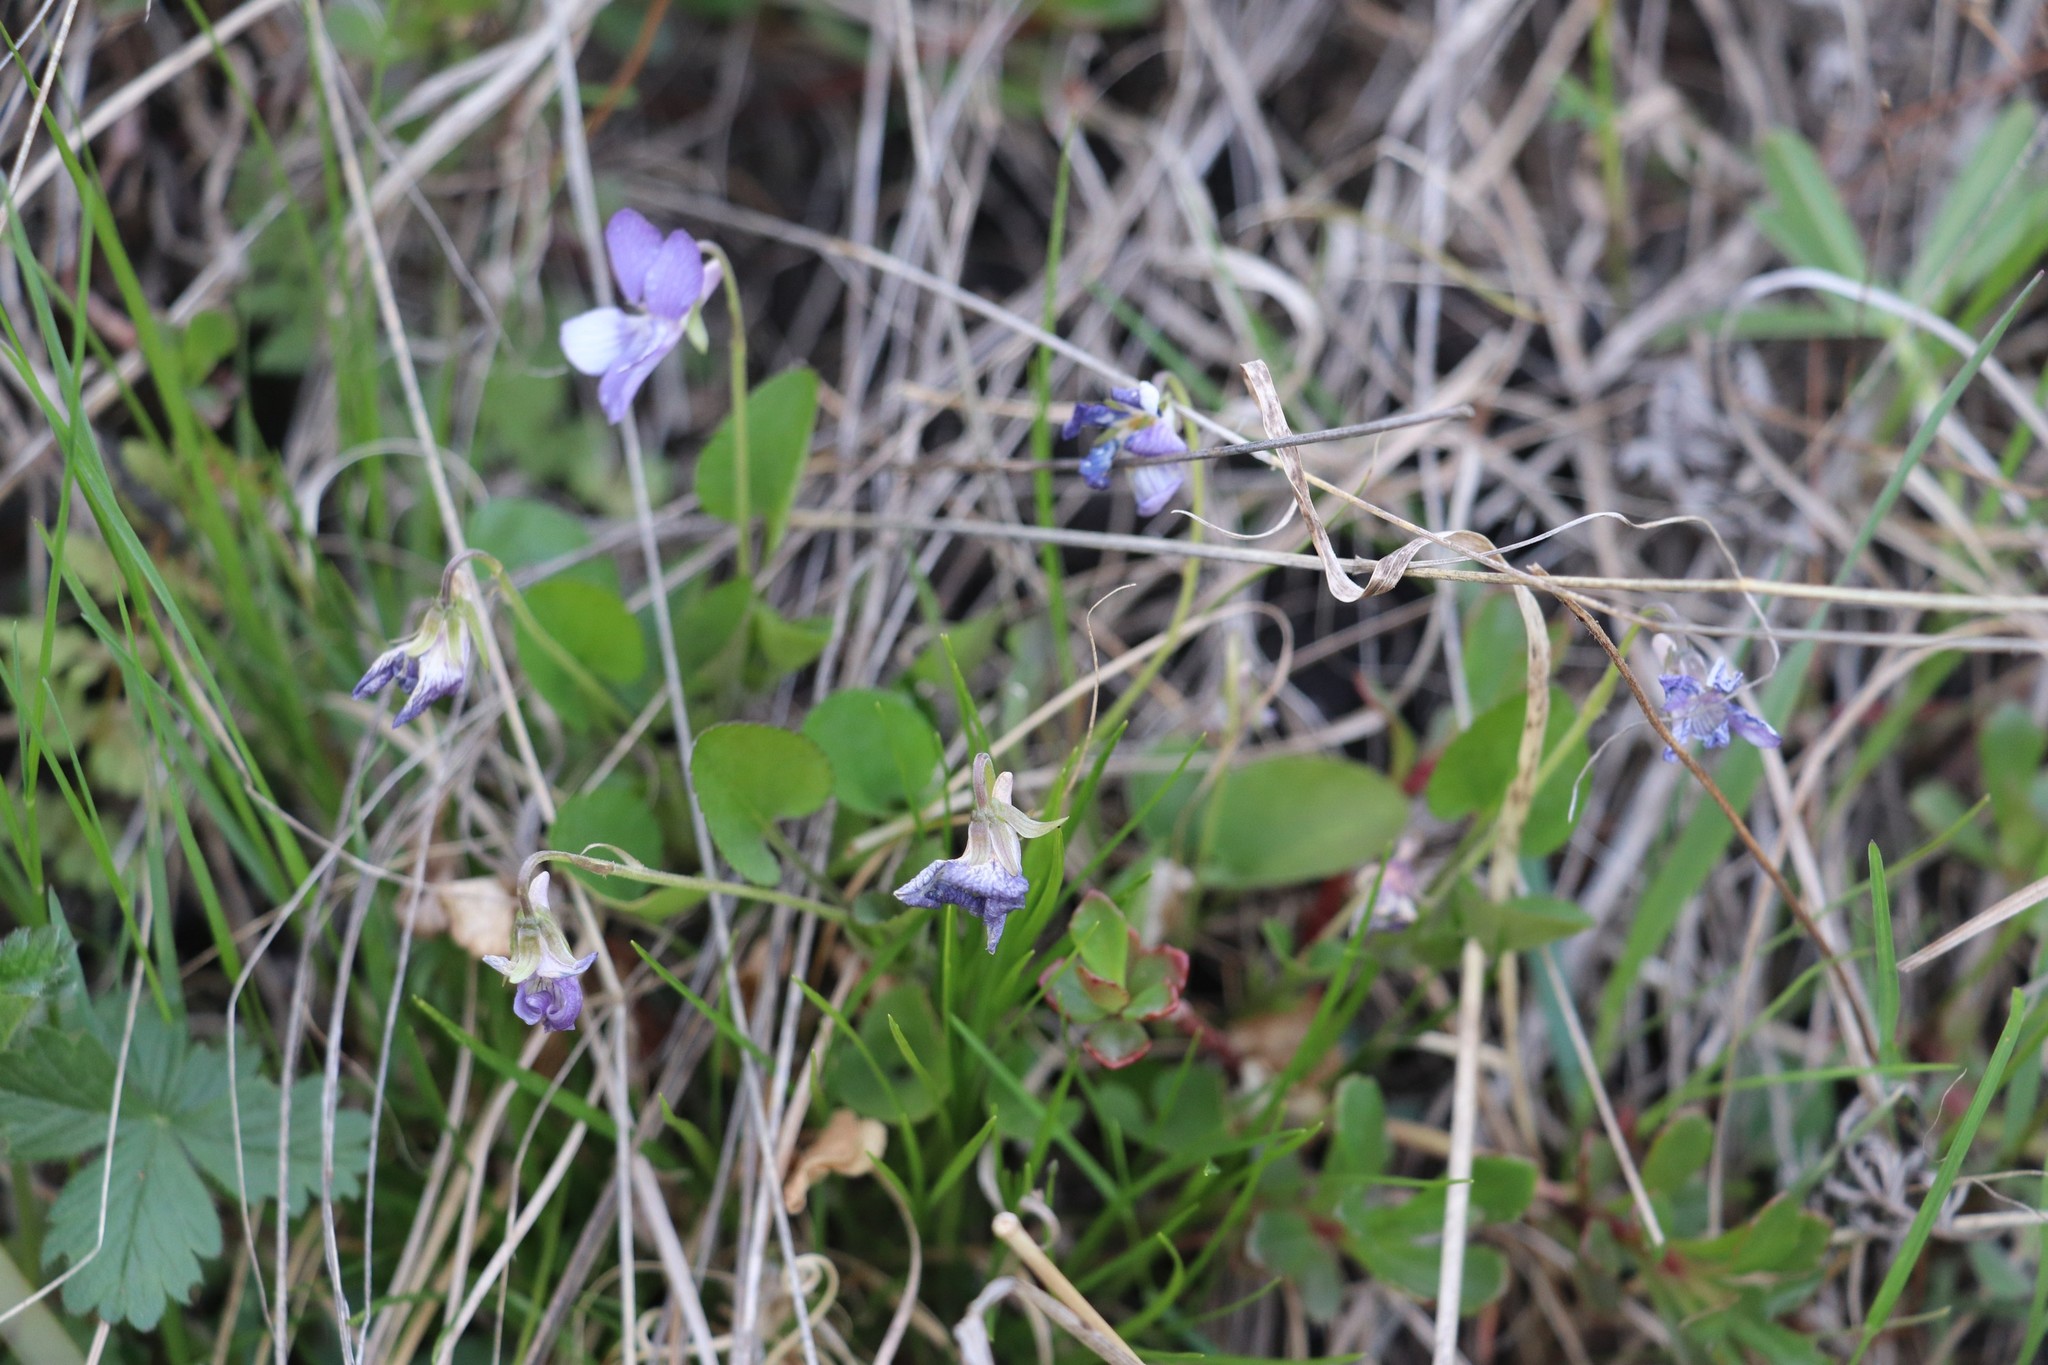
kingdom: Plantae
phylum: Tracheophyta
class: Magnoliopsida
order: Malpighiales
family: Violaceae
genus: Viola
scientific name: Viola rupestris
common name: Teesdale violet
